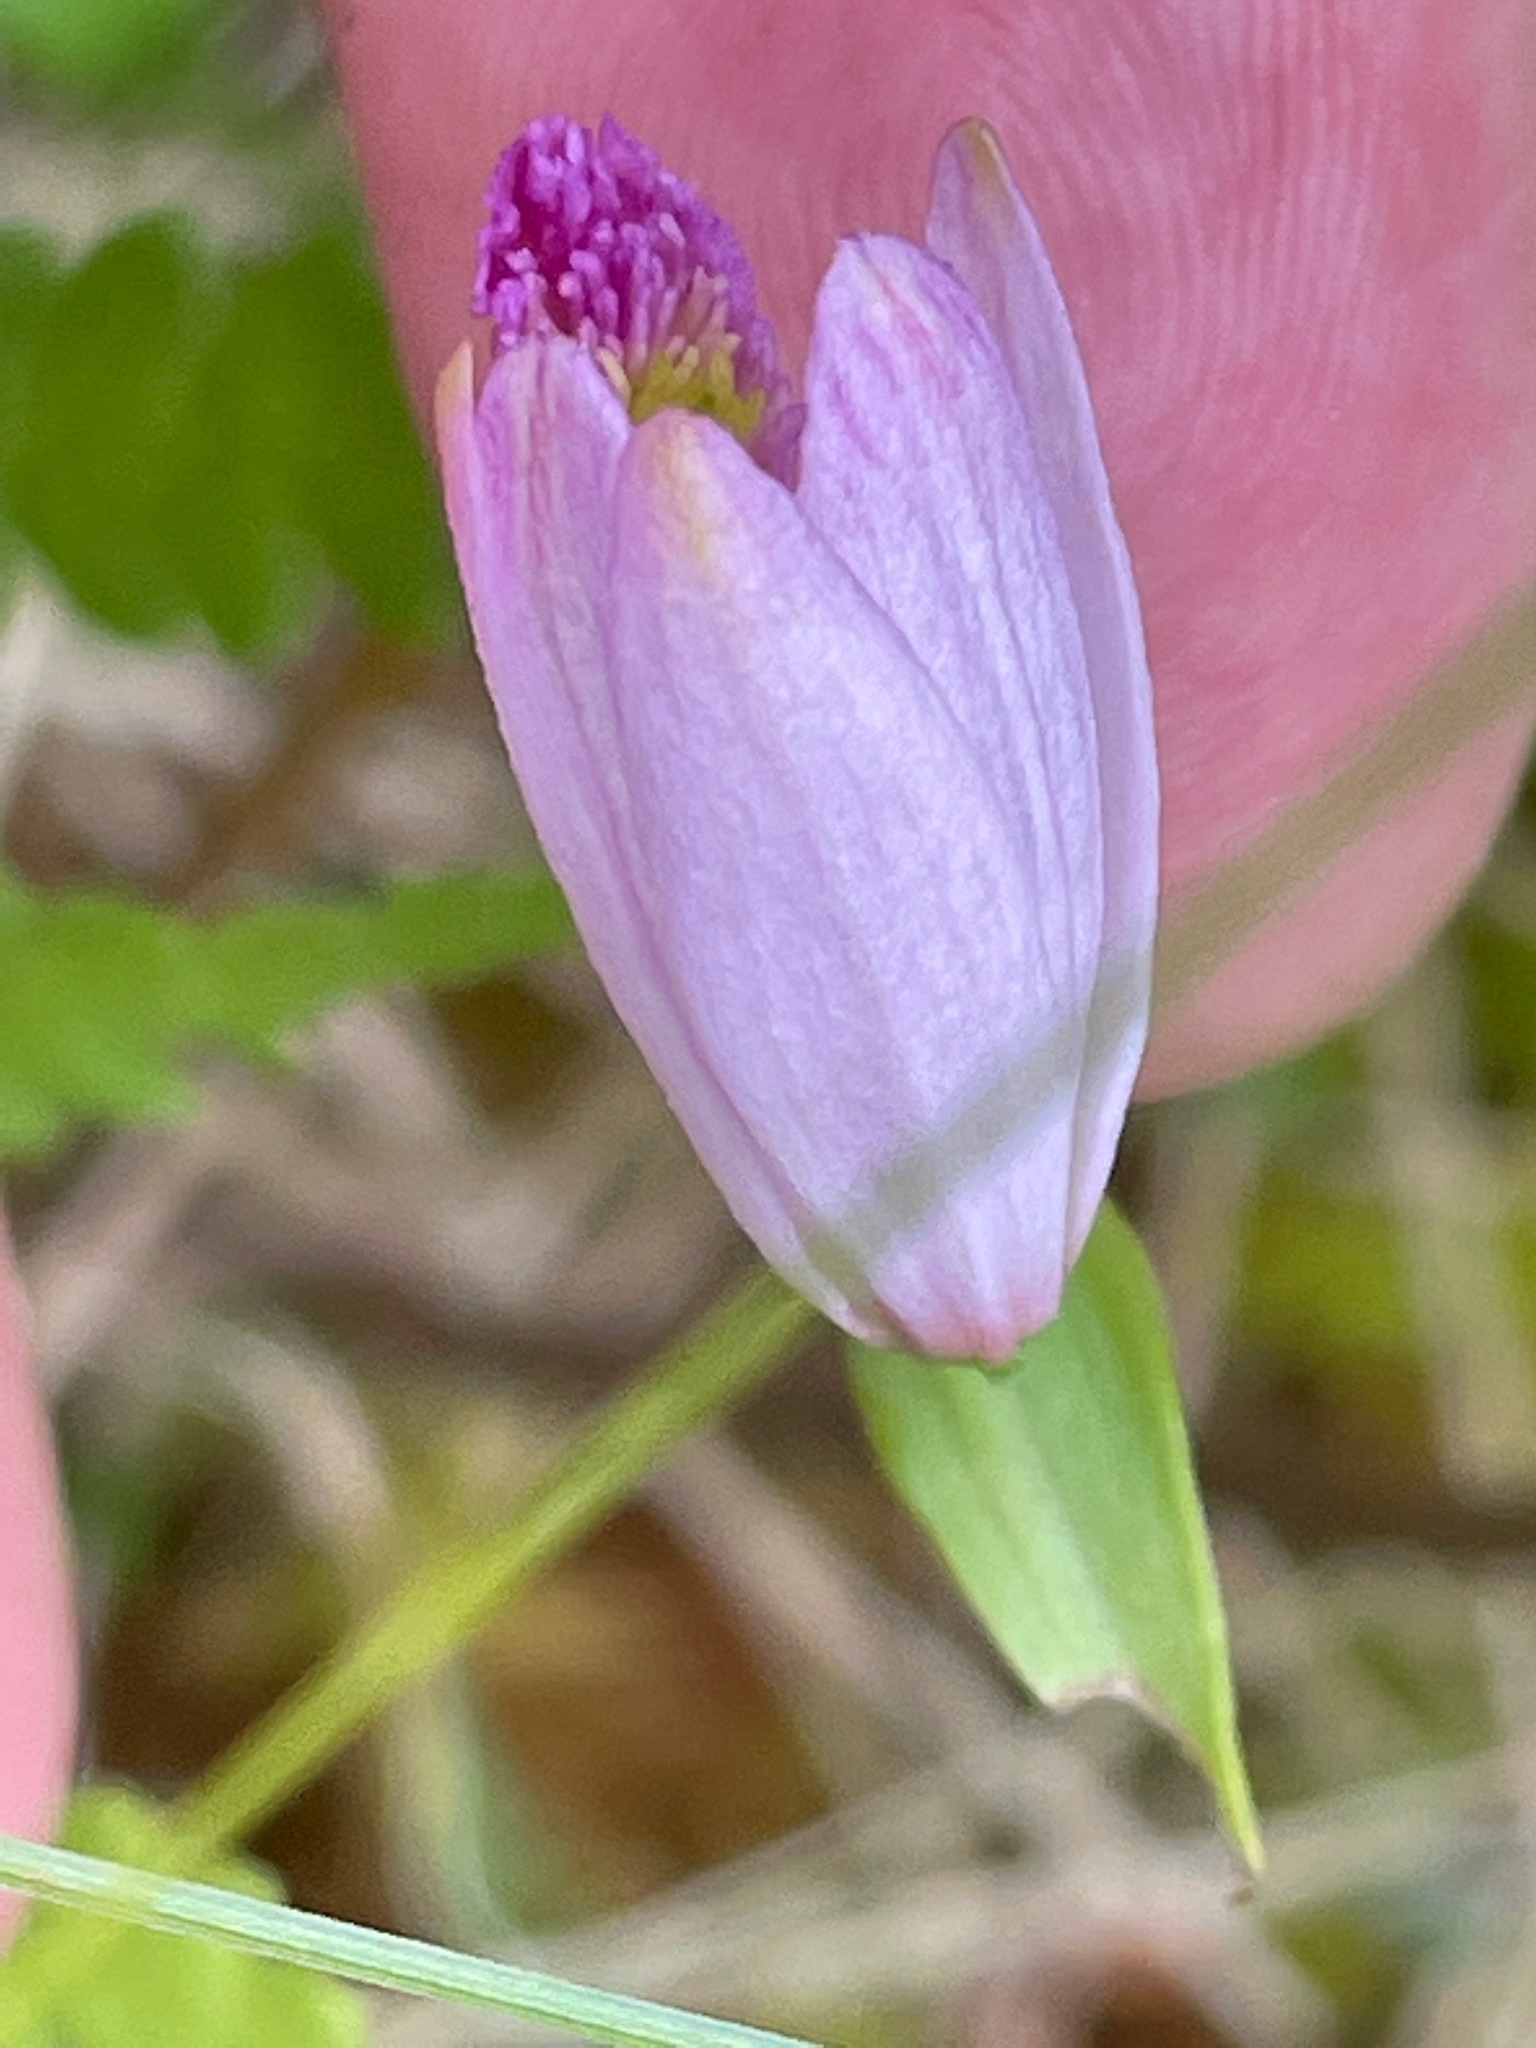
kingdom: Plantae
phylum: Tracheophyta
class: Liliopsida
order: Asparagales
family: Orchidaceae
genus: Pogonia
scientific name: Pogonia ophioglossoides
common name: Rose pogonia
